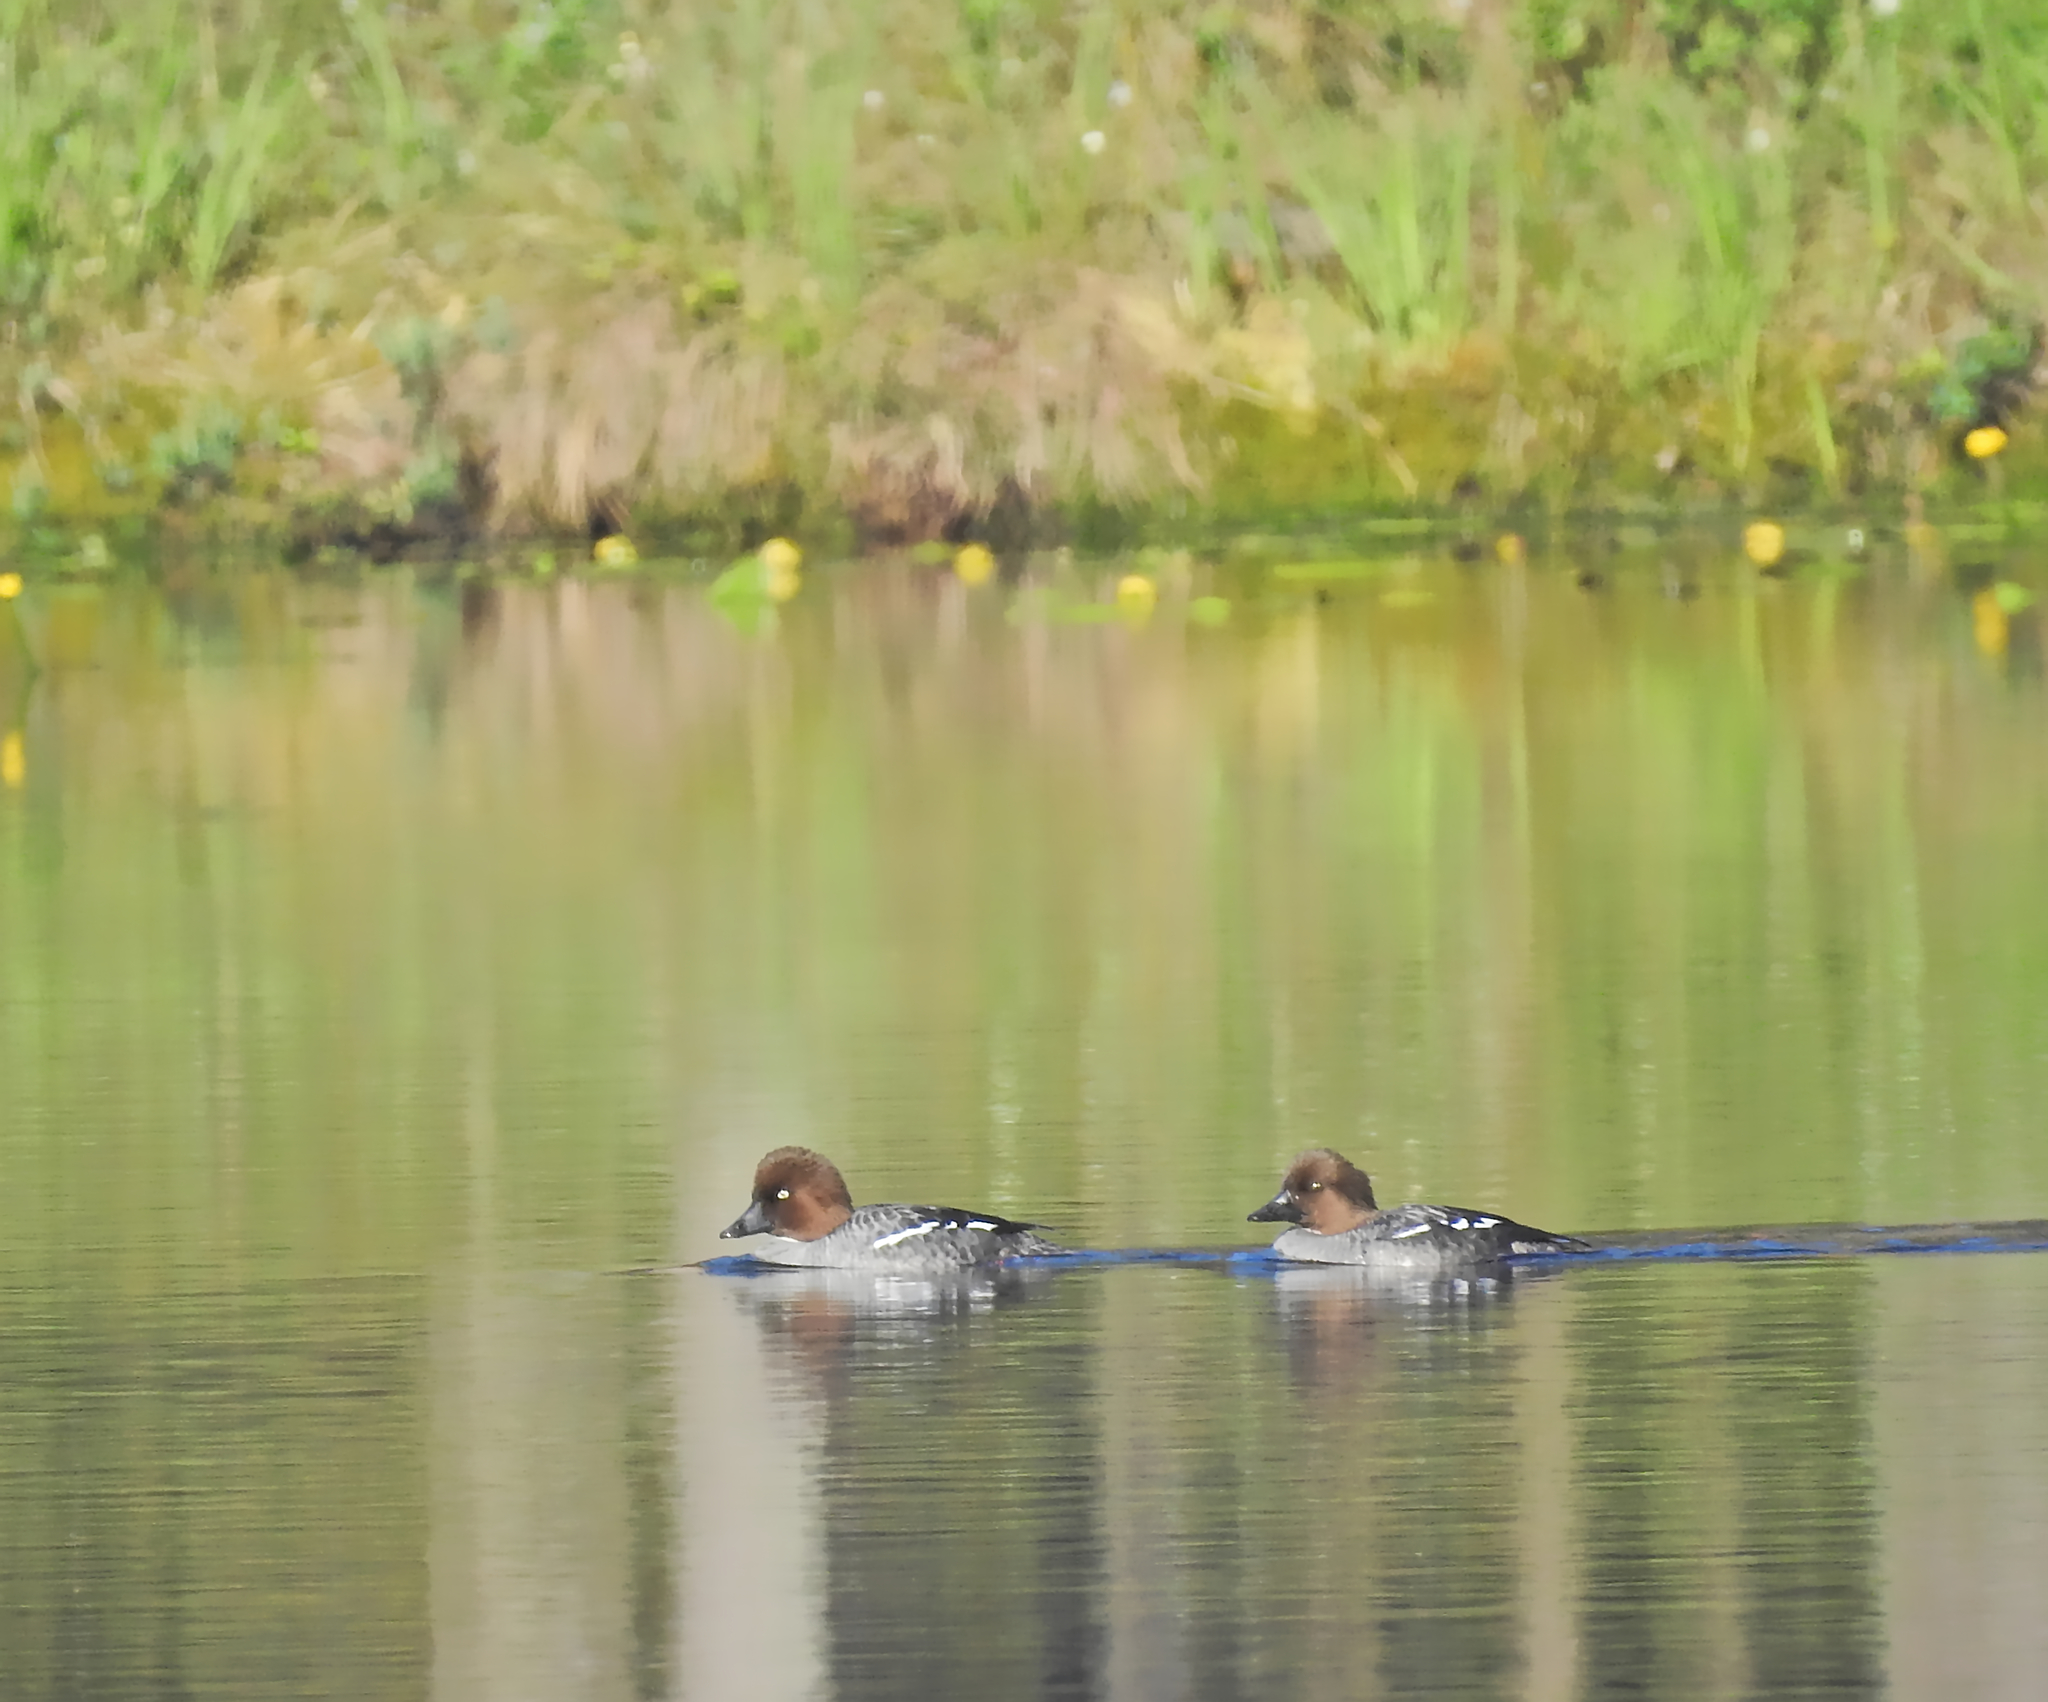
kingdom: Animalia
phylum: Chordata
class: Aves
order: Anseriformes
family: Anatidae
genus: Bucephala
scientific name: Bucephala clangula
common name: Common goldeneye
